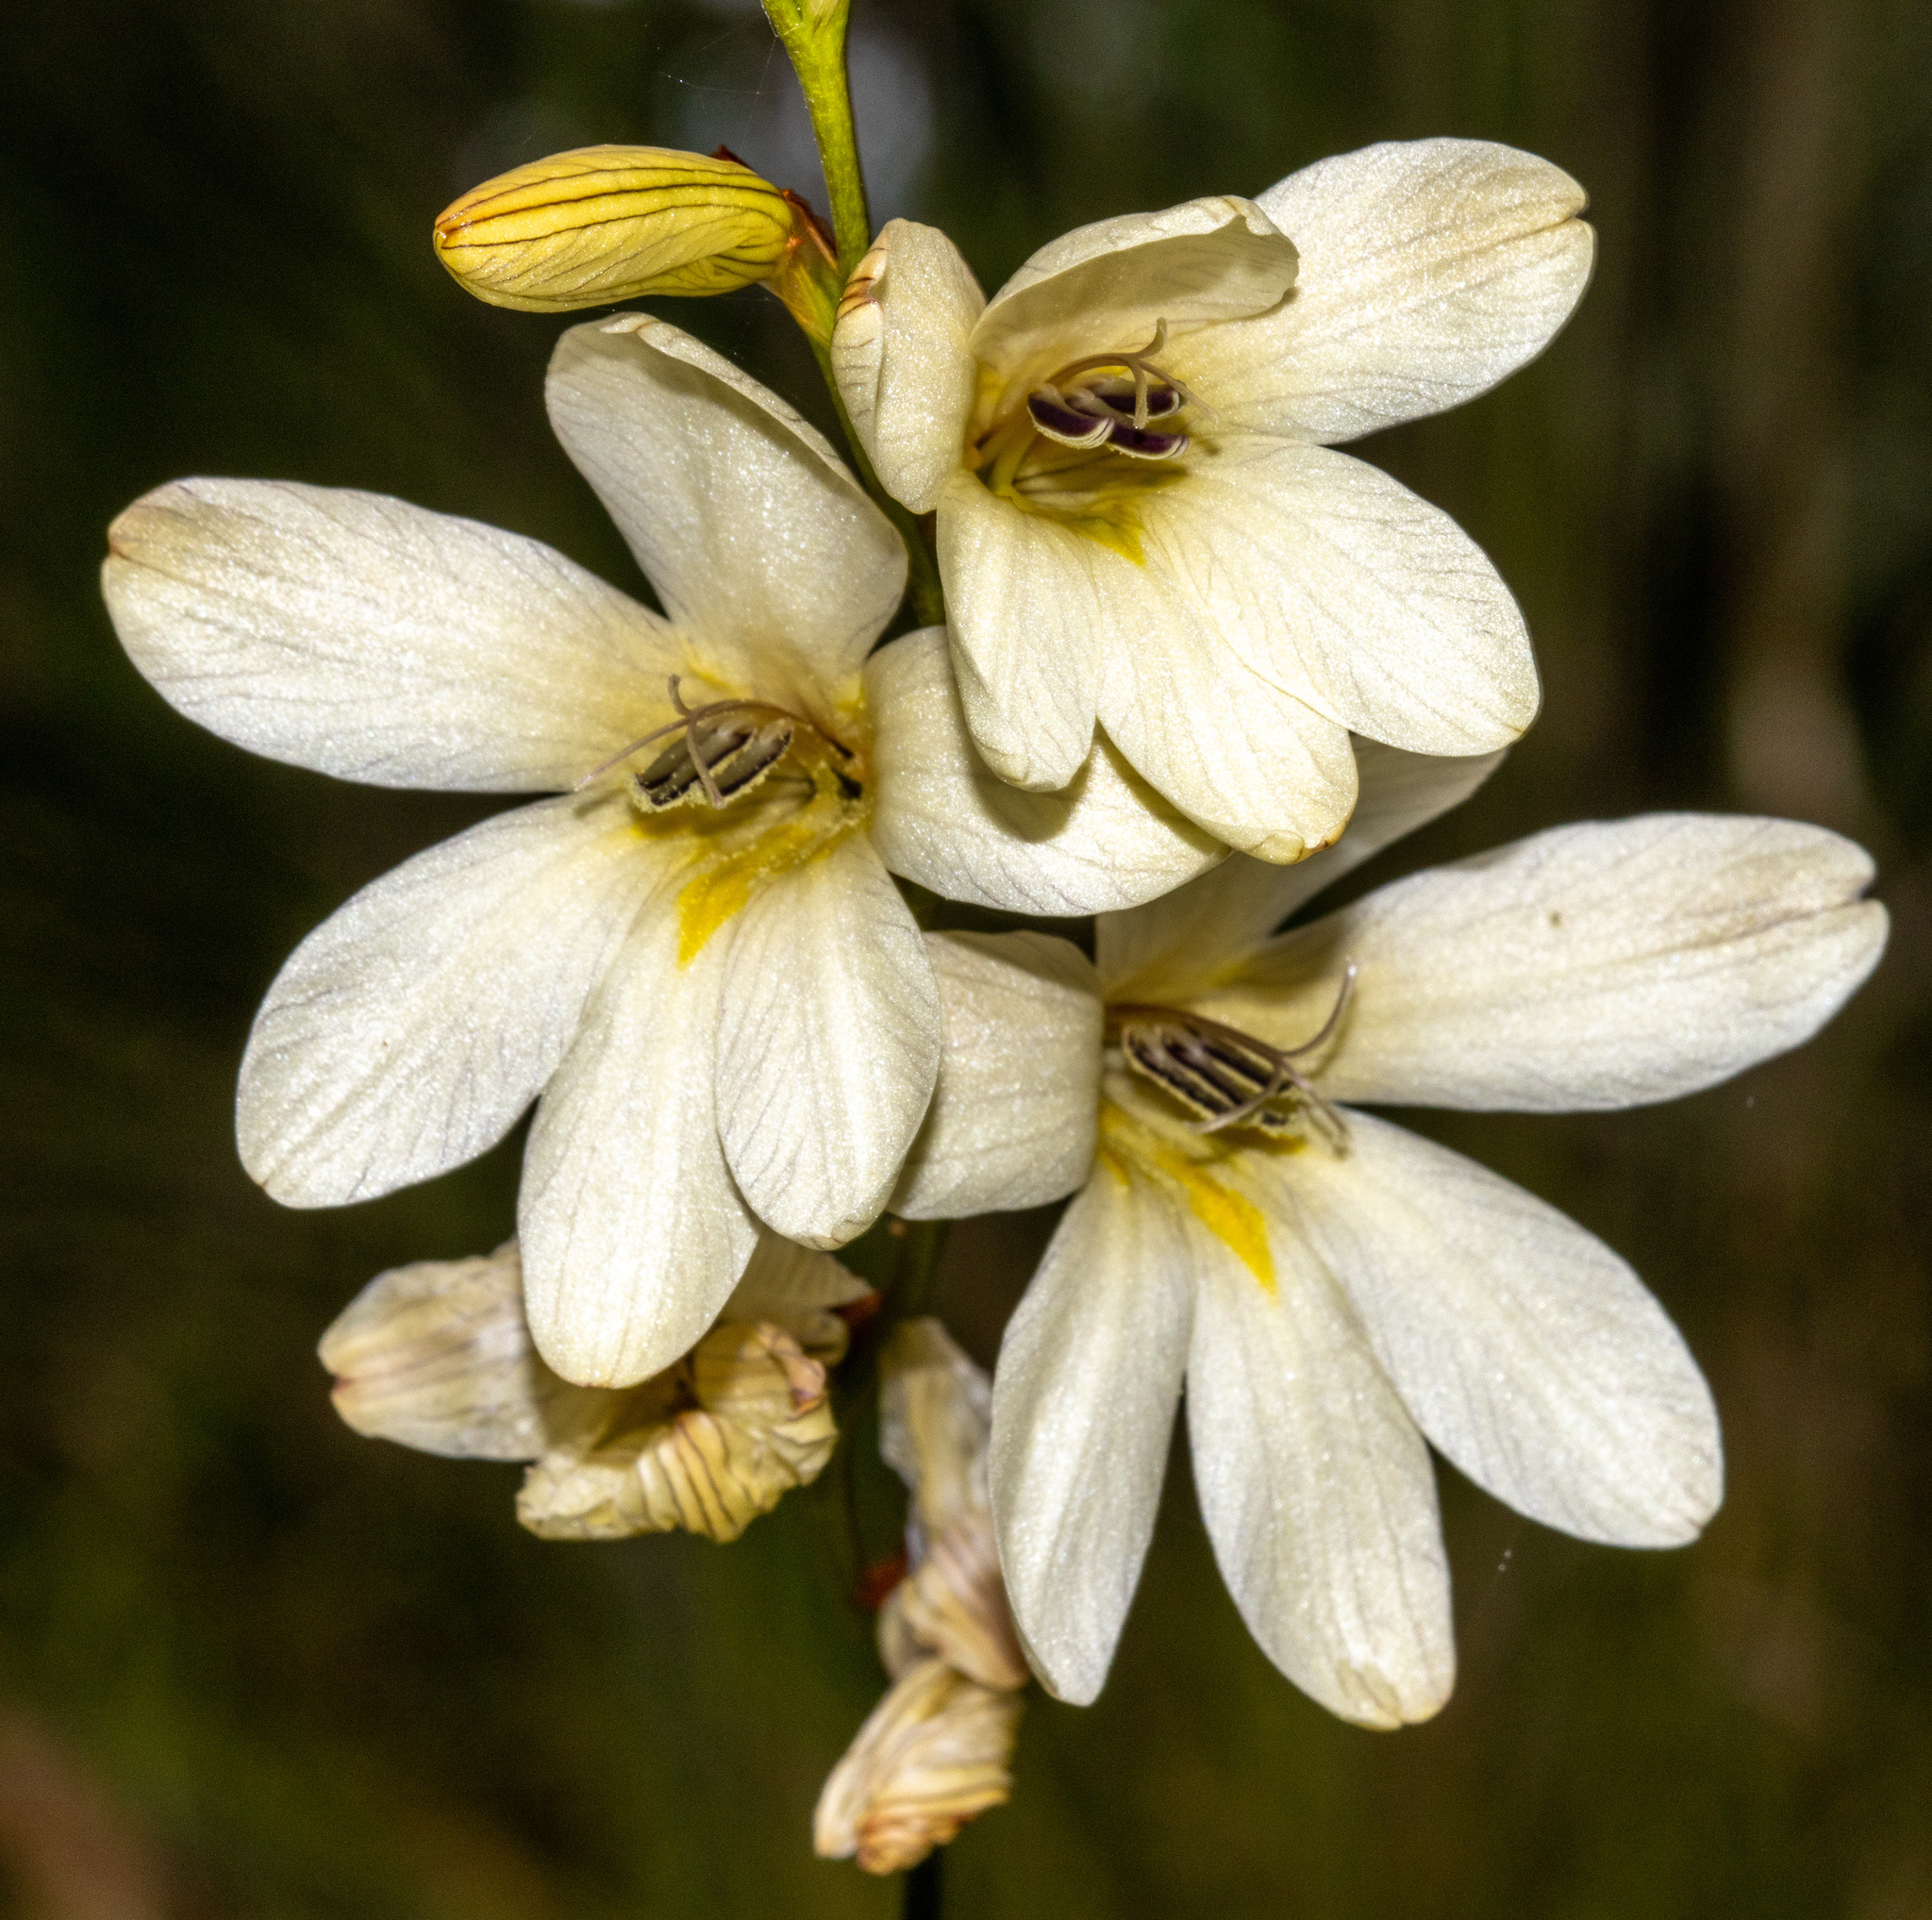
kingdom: Plantae
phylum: Tracheophyta
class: Liliopsida
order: Asparagales
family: Iridaceae
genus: Tritonia
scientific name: Tritonia gladiolaris
